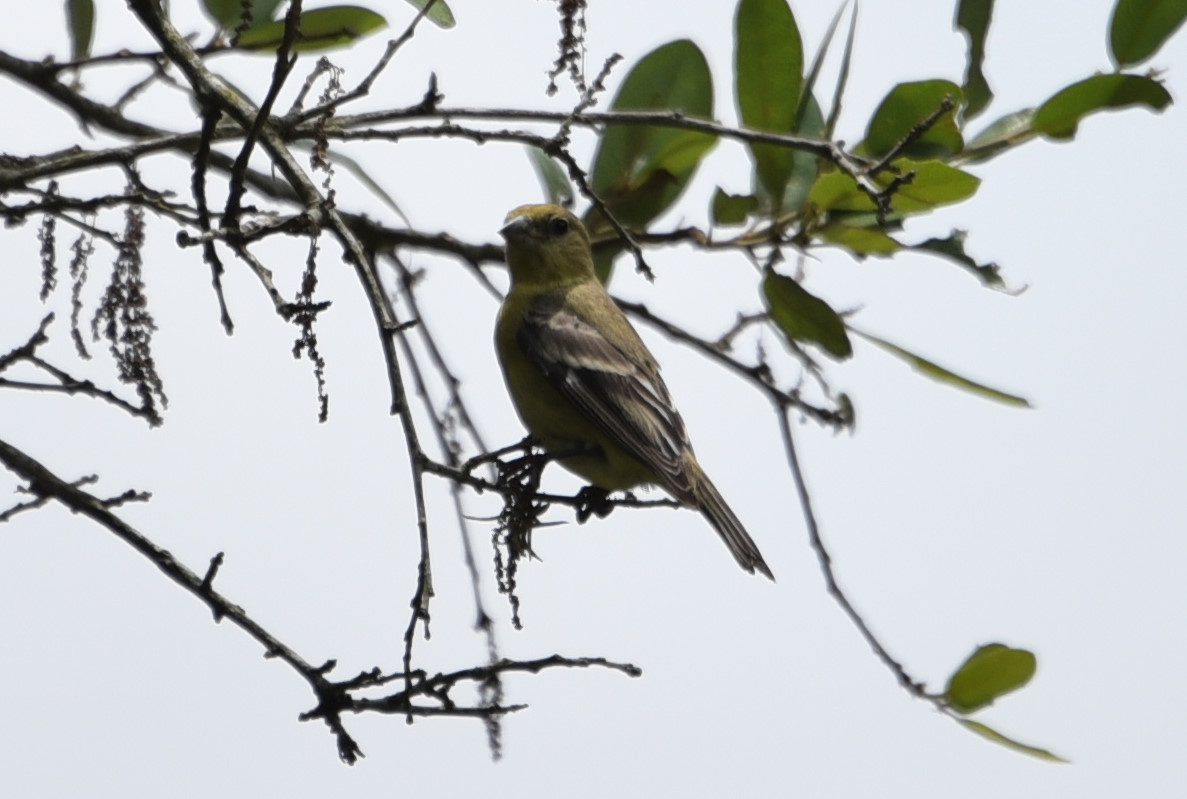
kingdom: Animalia
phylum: Chordata
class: Aves
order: Passeriformes
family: Fringillidae
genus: Spinus
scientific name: Spinus psaltria
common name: Lesser goldfinch
